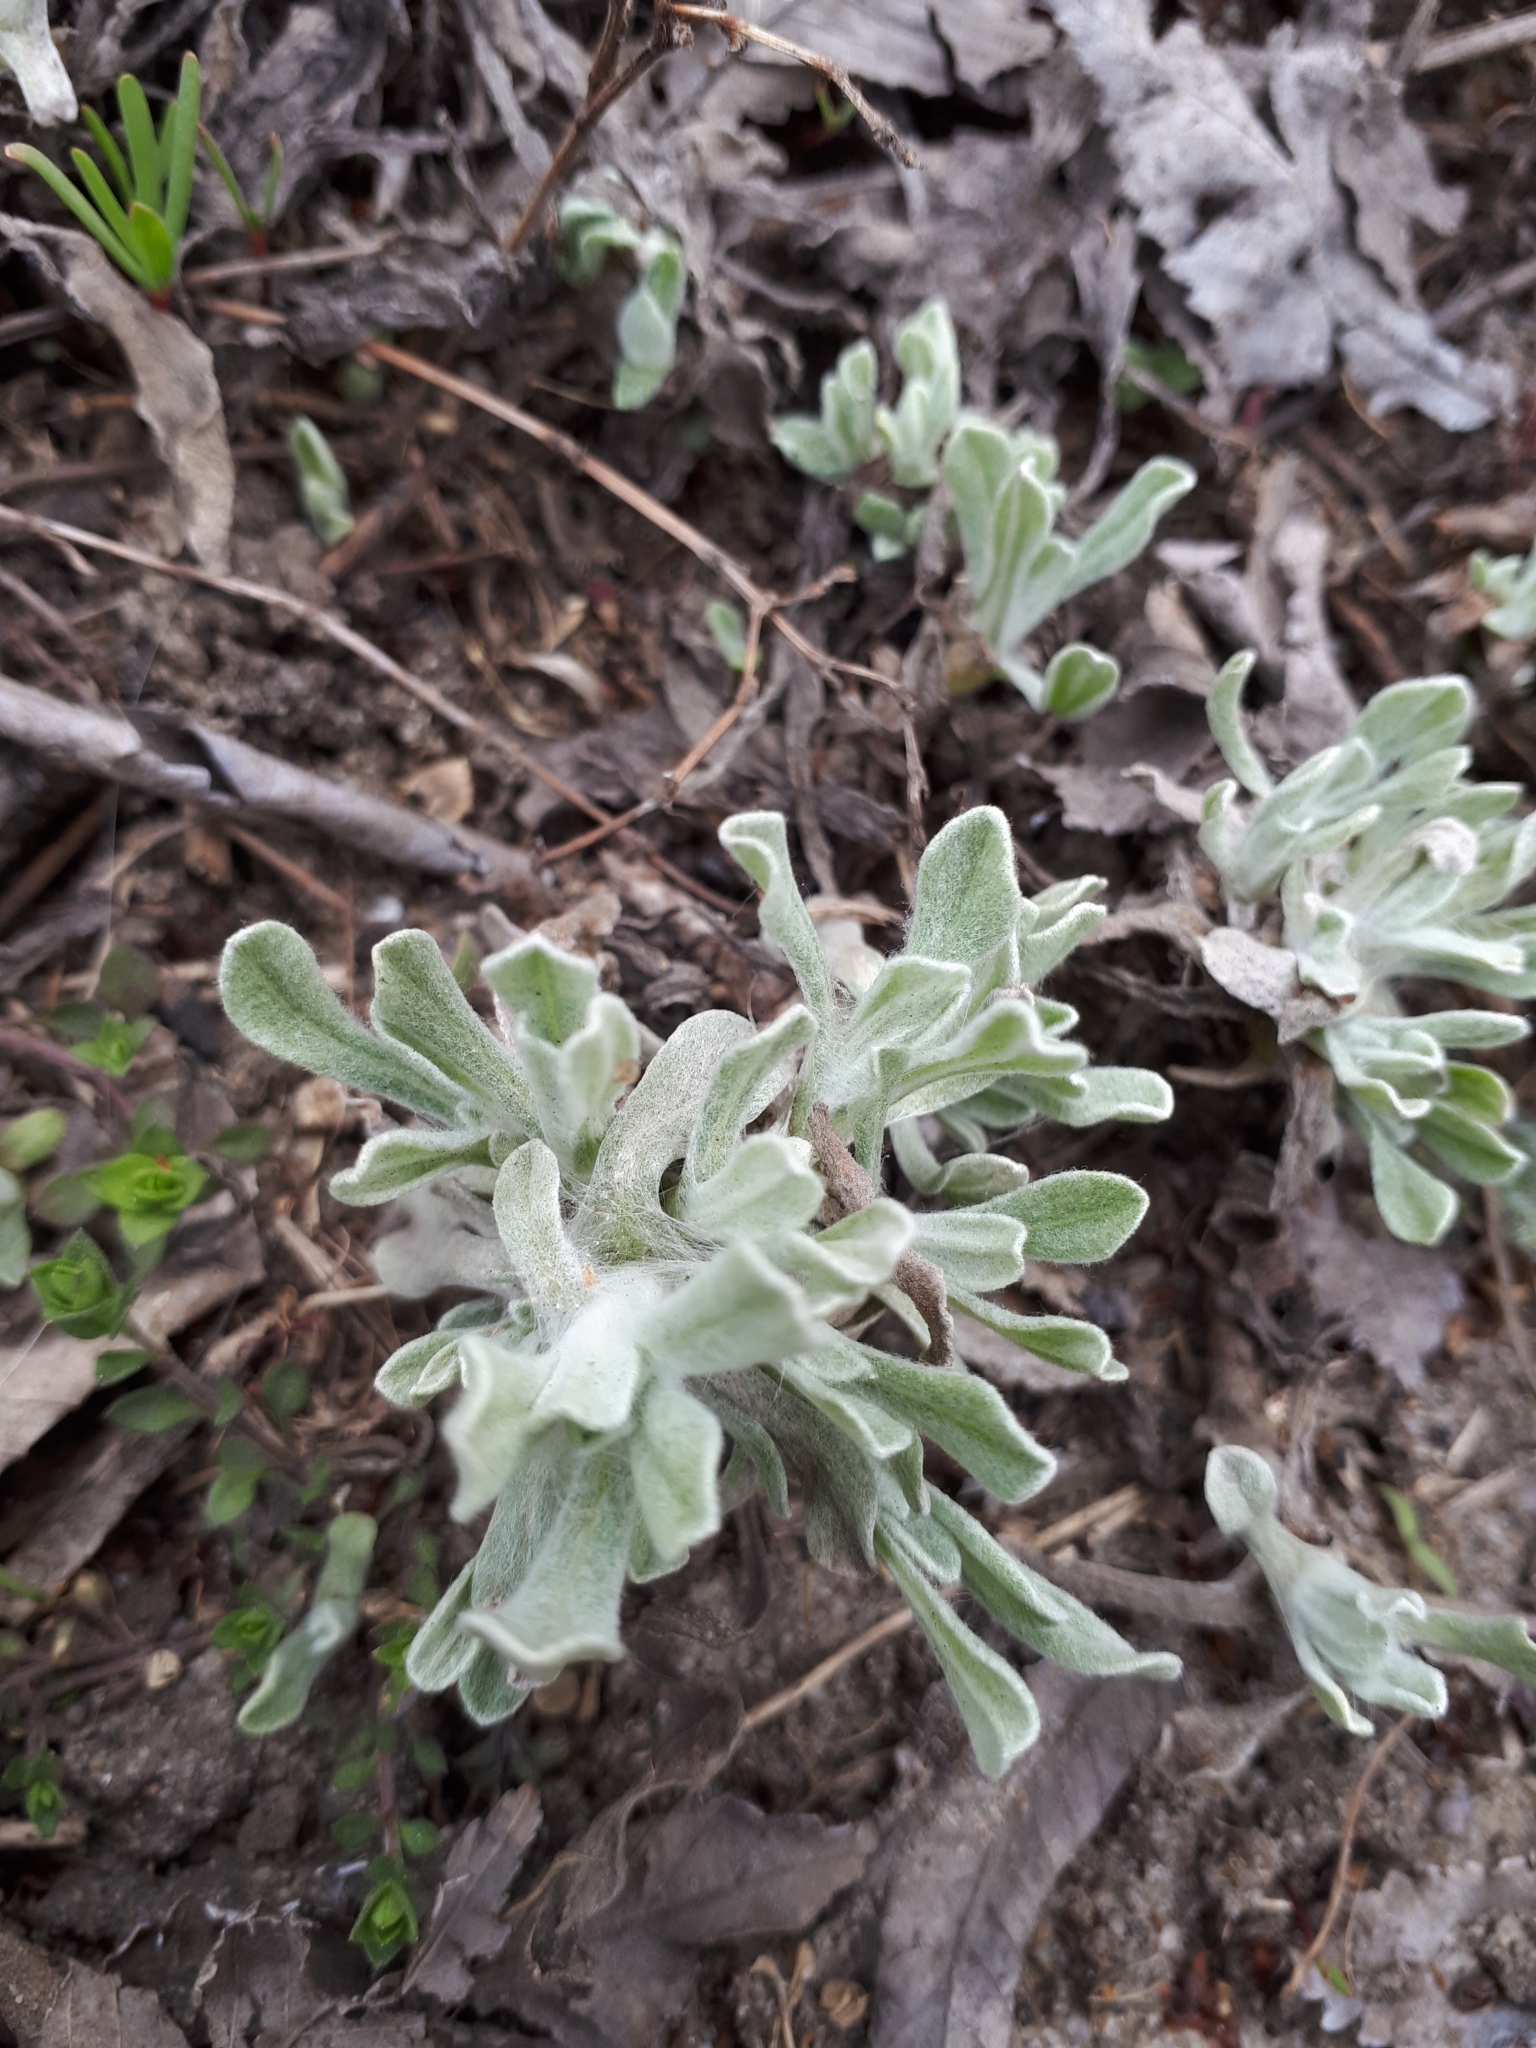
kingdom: Plantae
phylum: Tracheophyta
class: Magnoliopsida
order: Asterales
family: Asteraceae
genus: Helichrysum
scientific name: Helichrysum arenarium
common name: Strawflower
